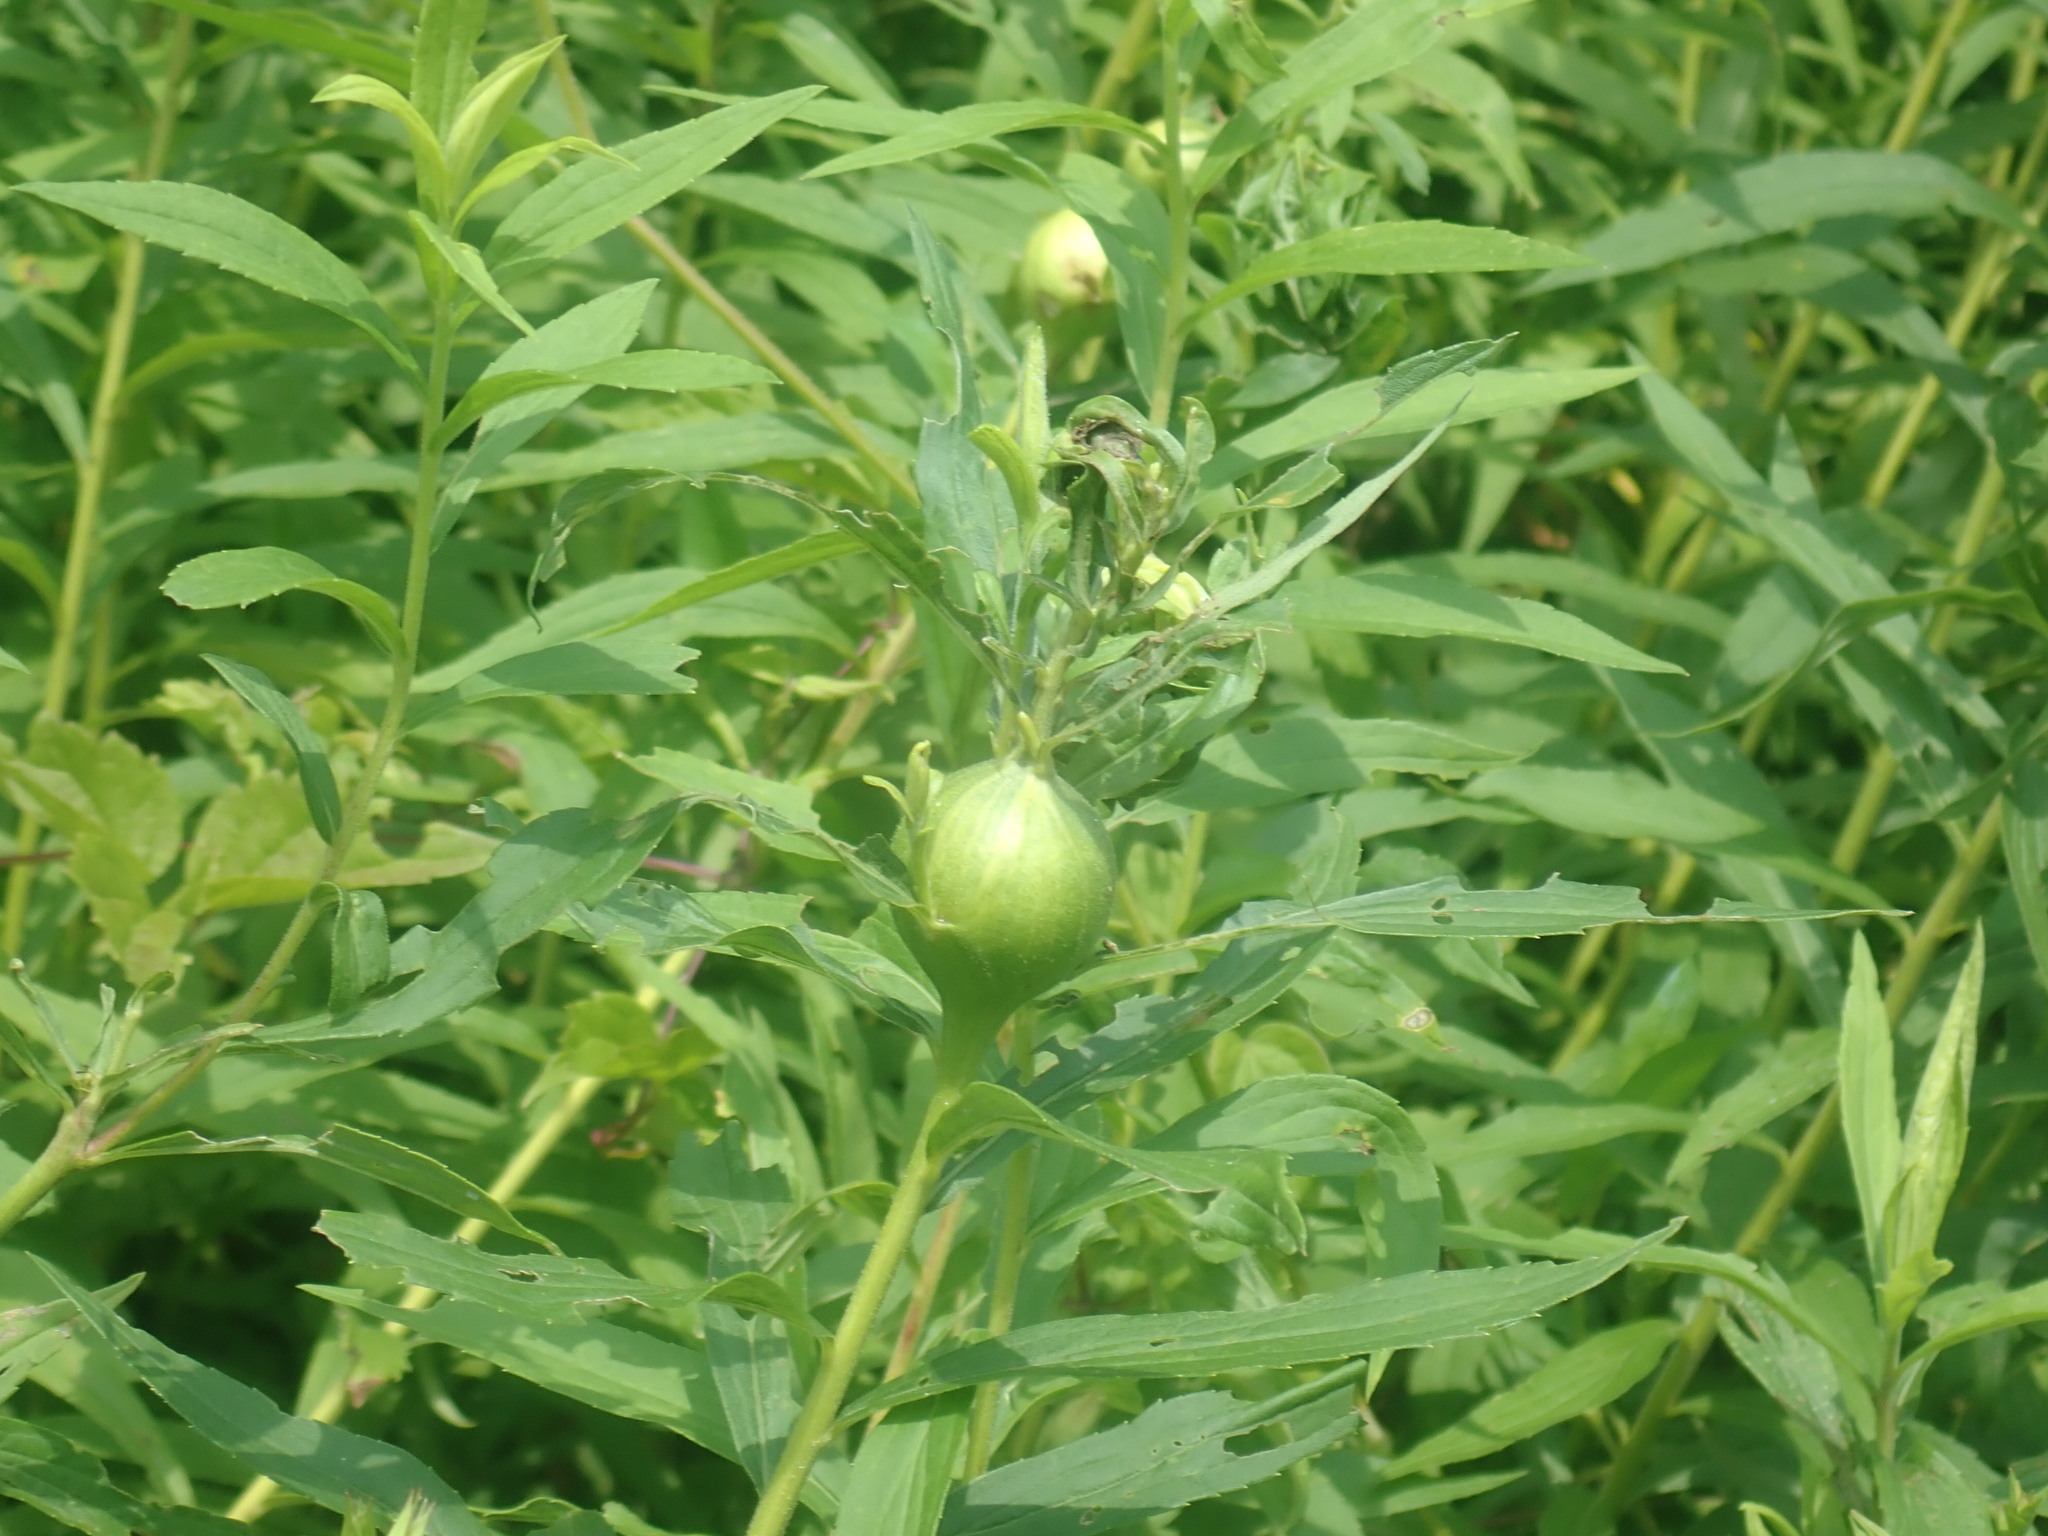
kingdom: Animalia
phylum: Arthropoda
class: Insecta
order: Diptera
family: Tephritidae
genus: Eurosta
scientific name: Eurosta solidaginis
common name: Goldenrod gall fly
